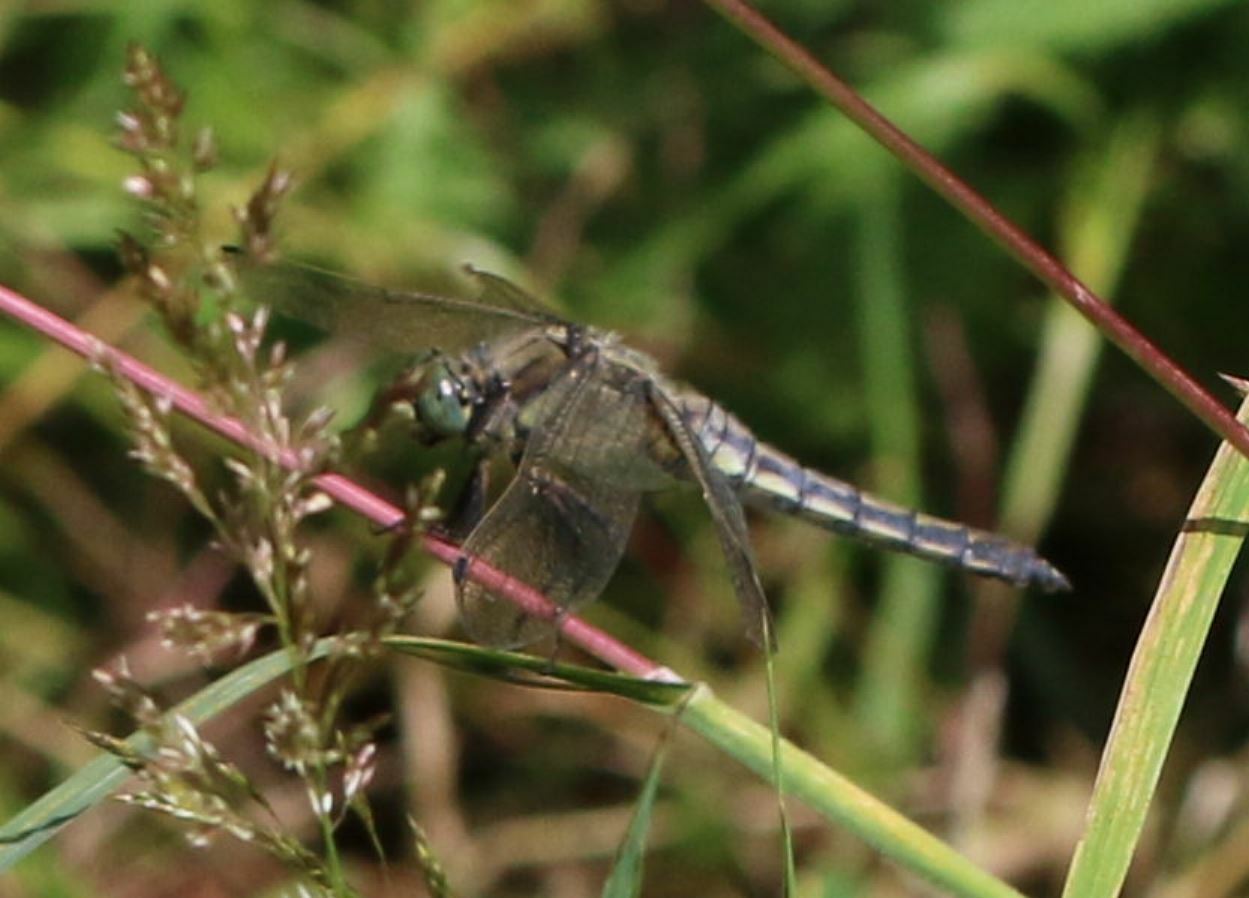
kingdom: Animalia
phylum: Arthropoda
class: Insecta
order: Odonata
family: Libellulidae
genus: Orthetrum
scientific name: Orthetrum cancellatum
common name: Black-tailed skimmer
